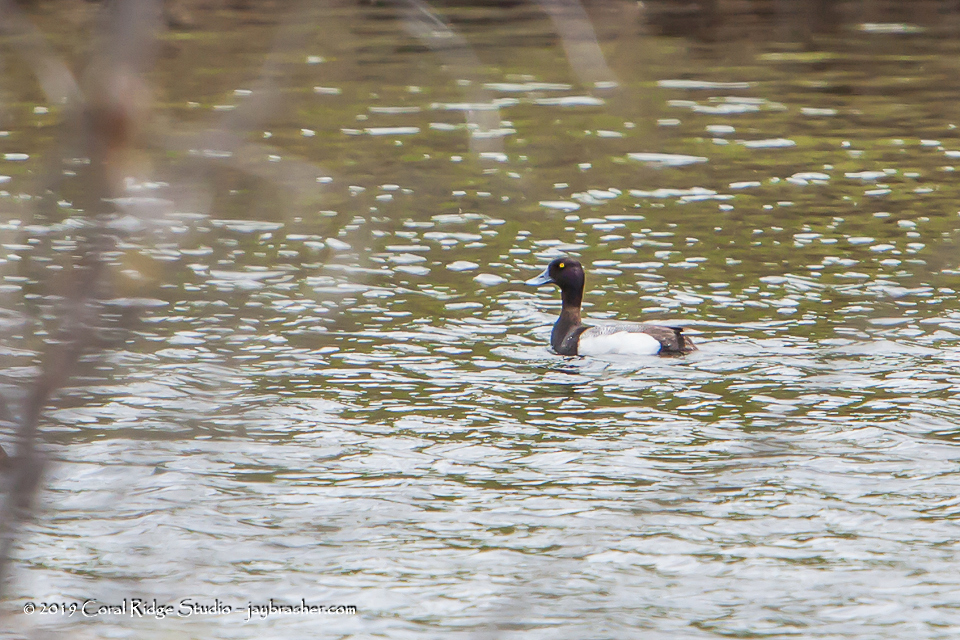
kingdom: Animalia
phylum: Chordata
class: Aves
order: Anseriformes
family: Anatidae
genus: Aythya
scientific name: Aythya affinis
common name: Lesser scaup
